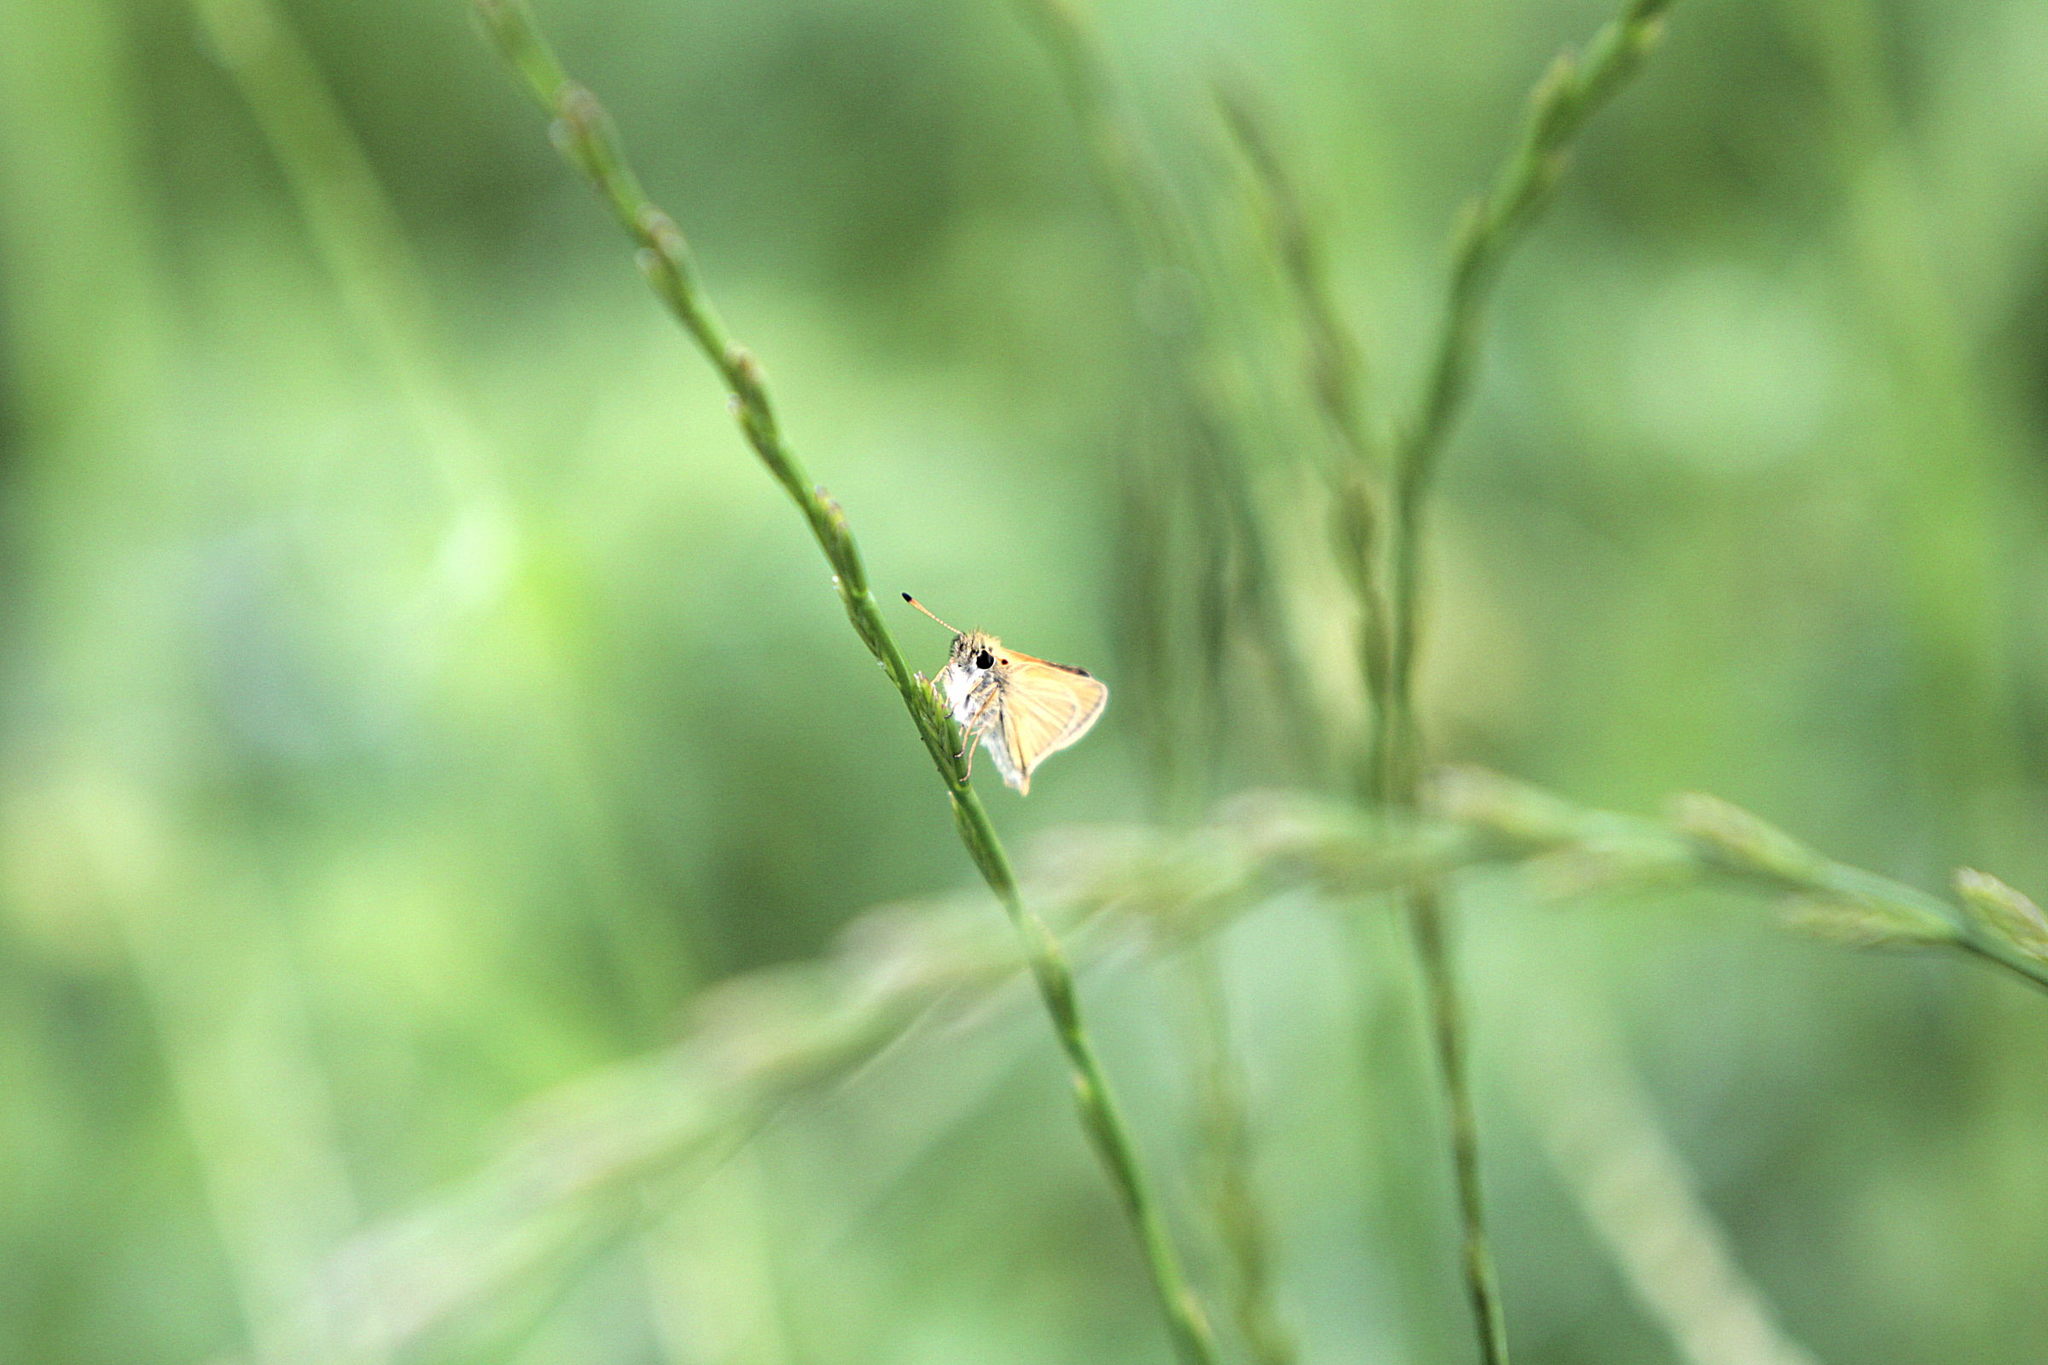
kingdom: Animalia
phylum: Arthropoda
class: Insecta
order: Lepidoptera
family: Hesperiidae
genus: Thymelicus
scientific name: Thymelicus lineola
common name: Essex skipper
